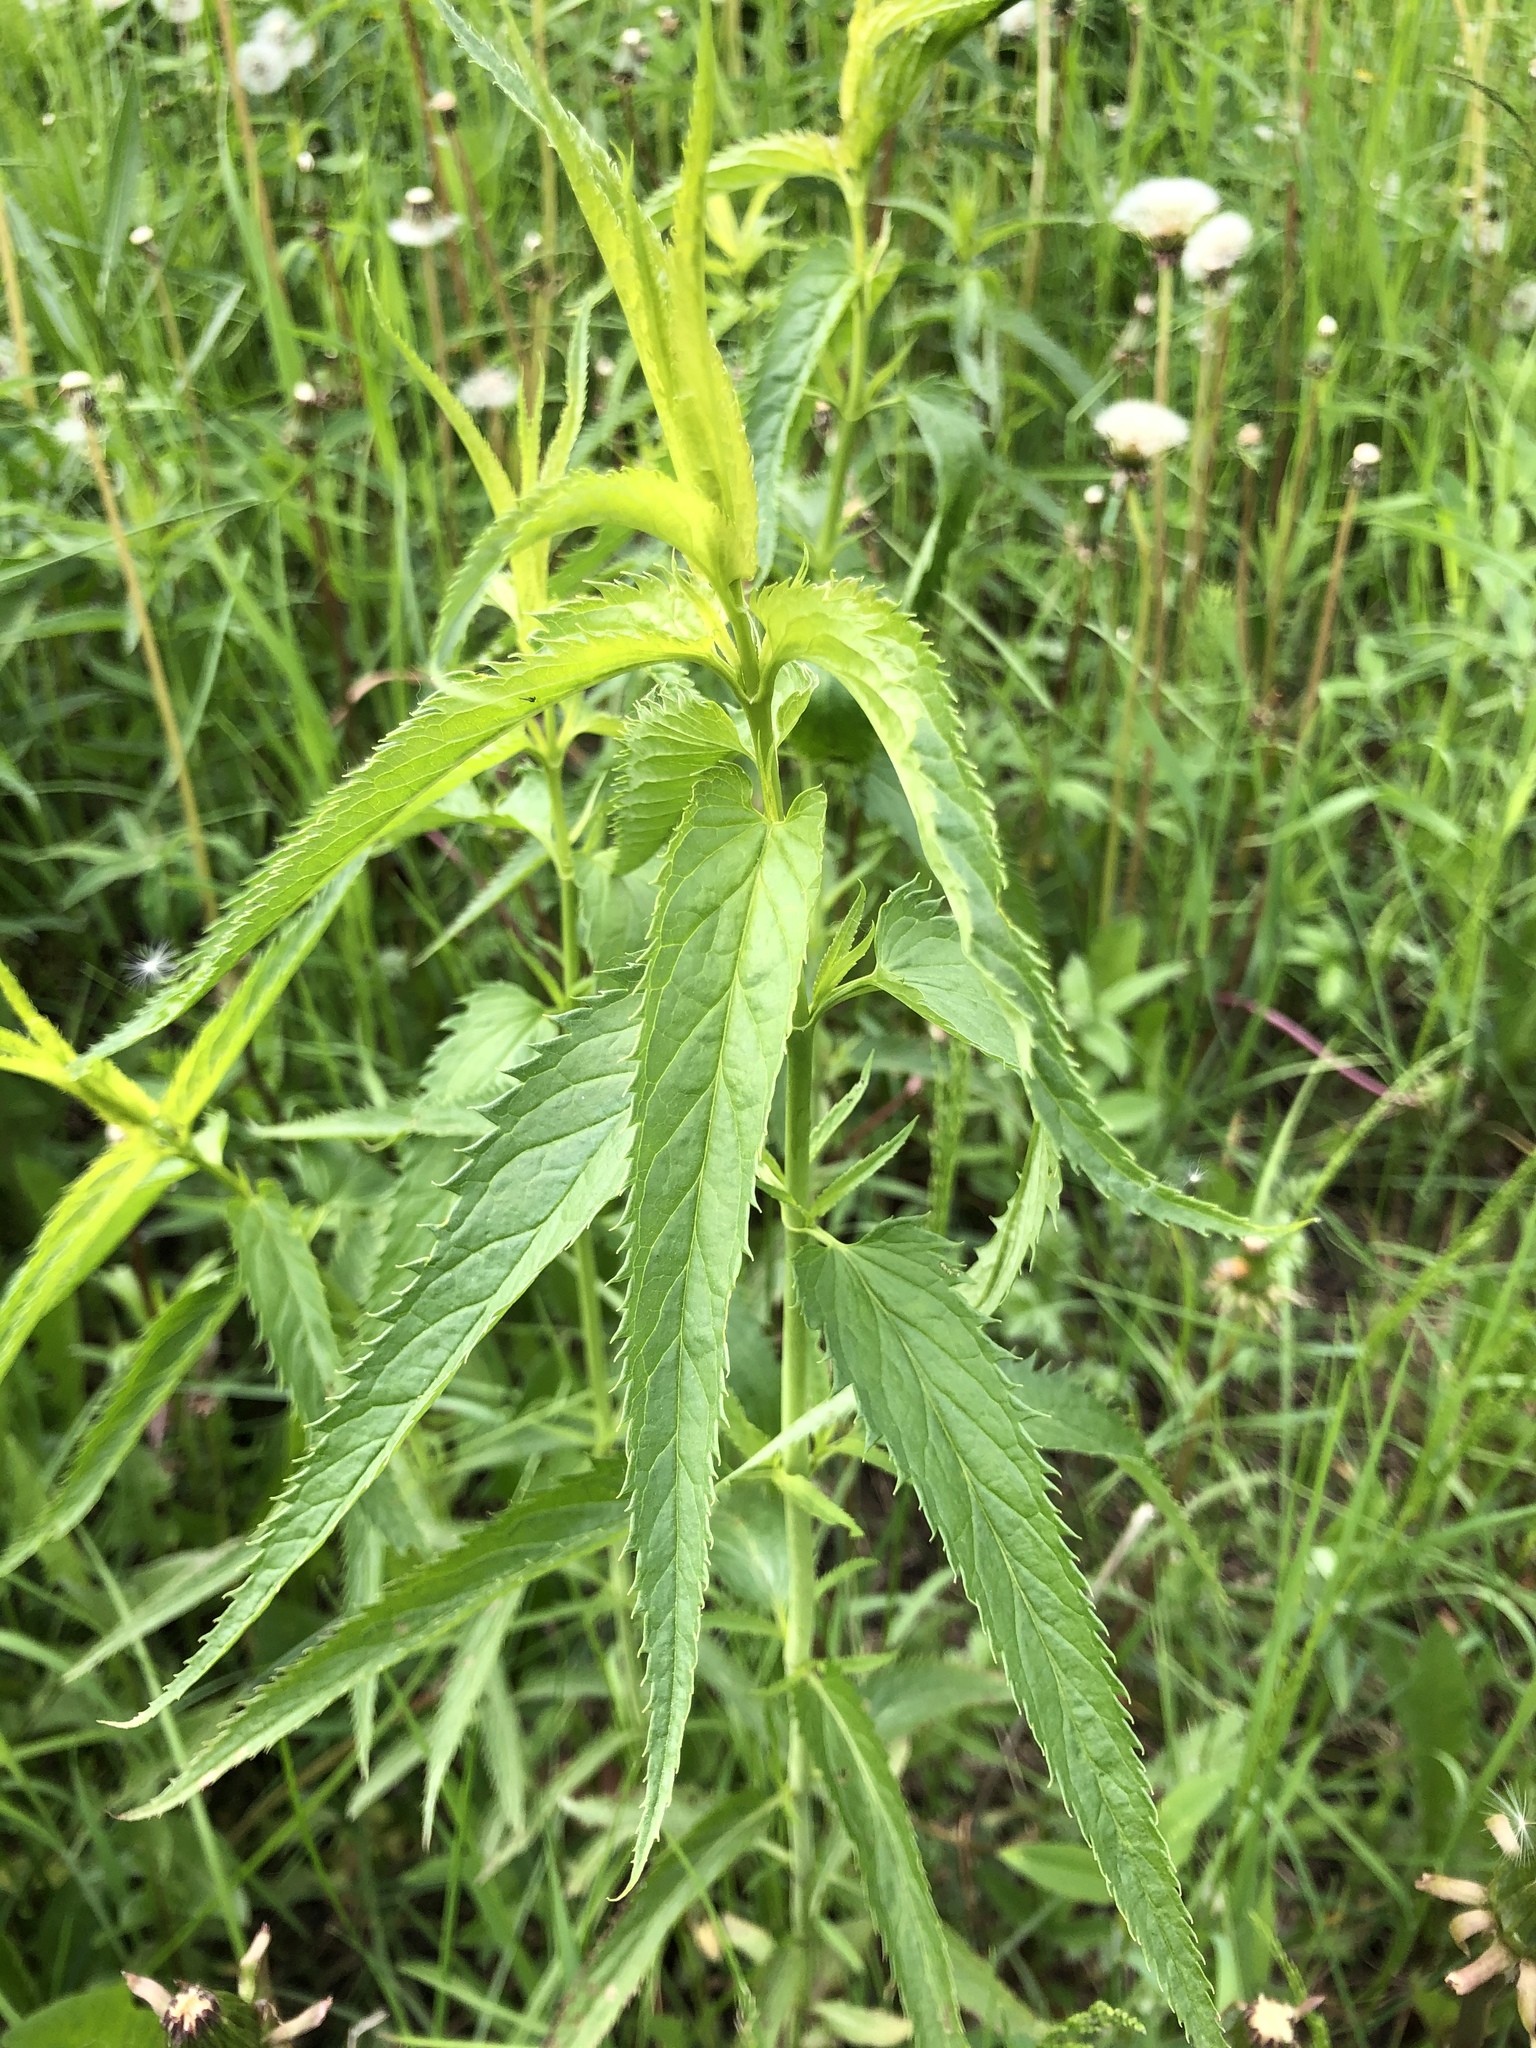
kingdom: Plantae
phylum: Tracheophyta
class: Magnoliopsida
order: Lamiales
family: Plantaginaceae
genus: Veronica
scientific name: Veronica longifolia
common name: Garden speedwell
